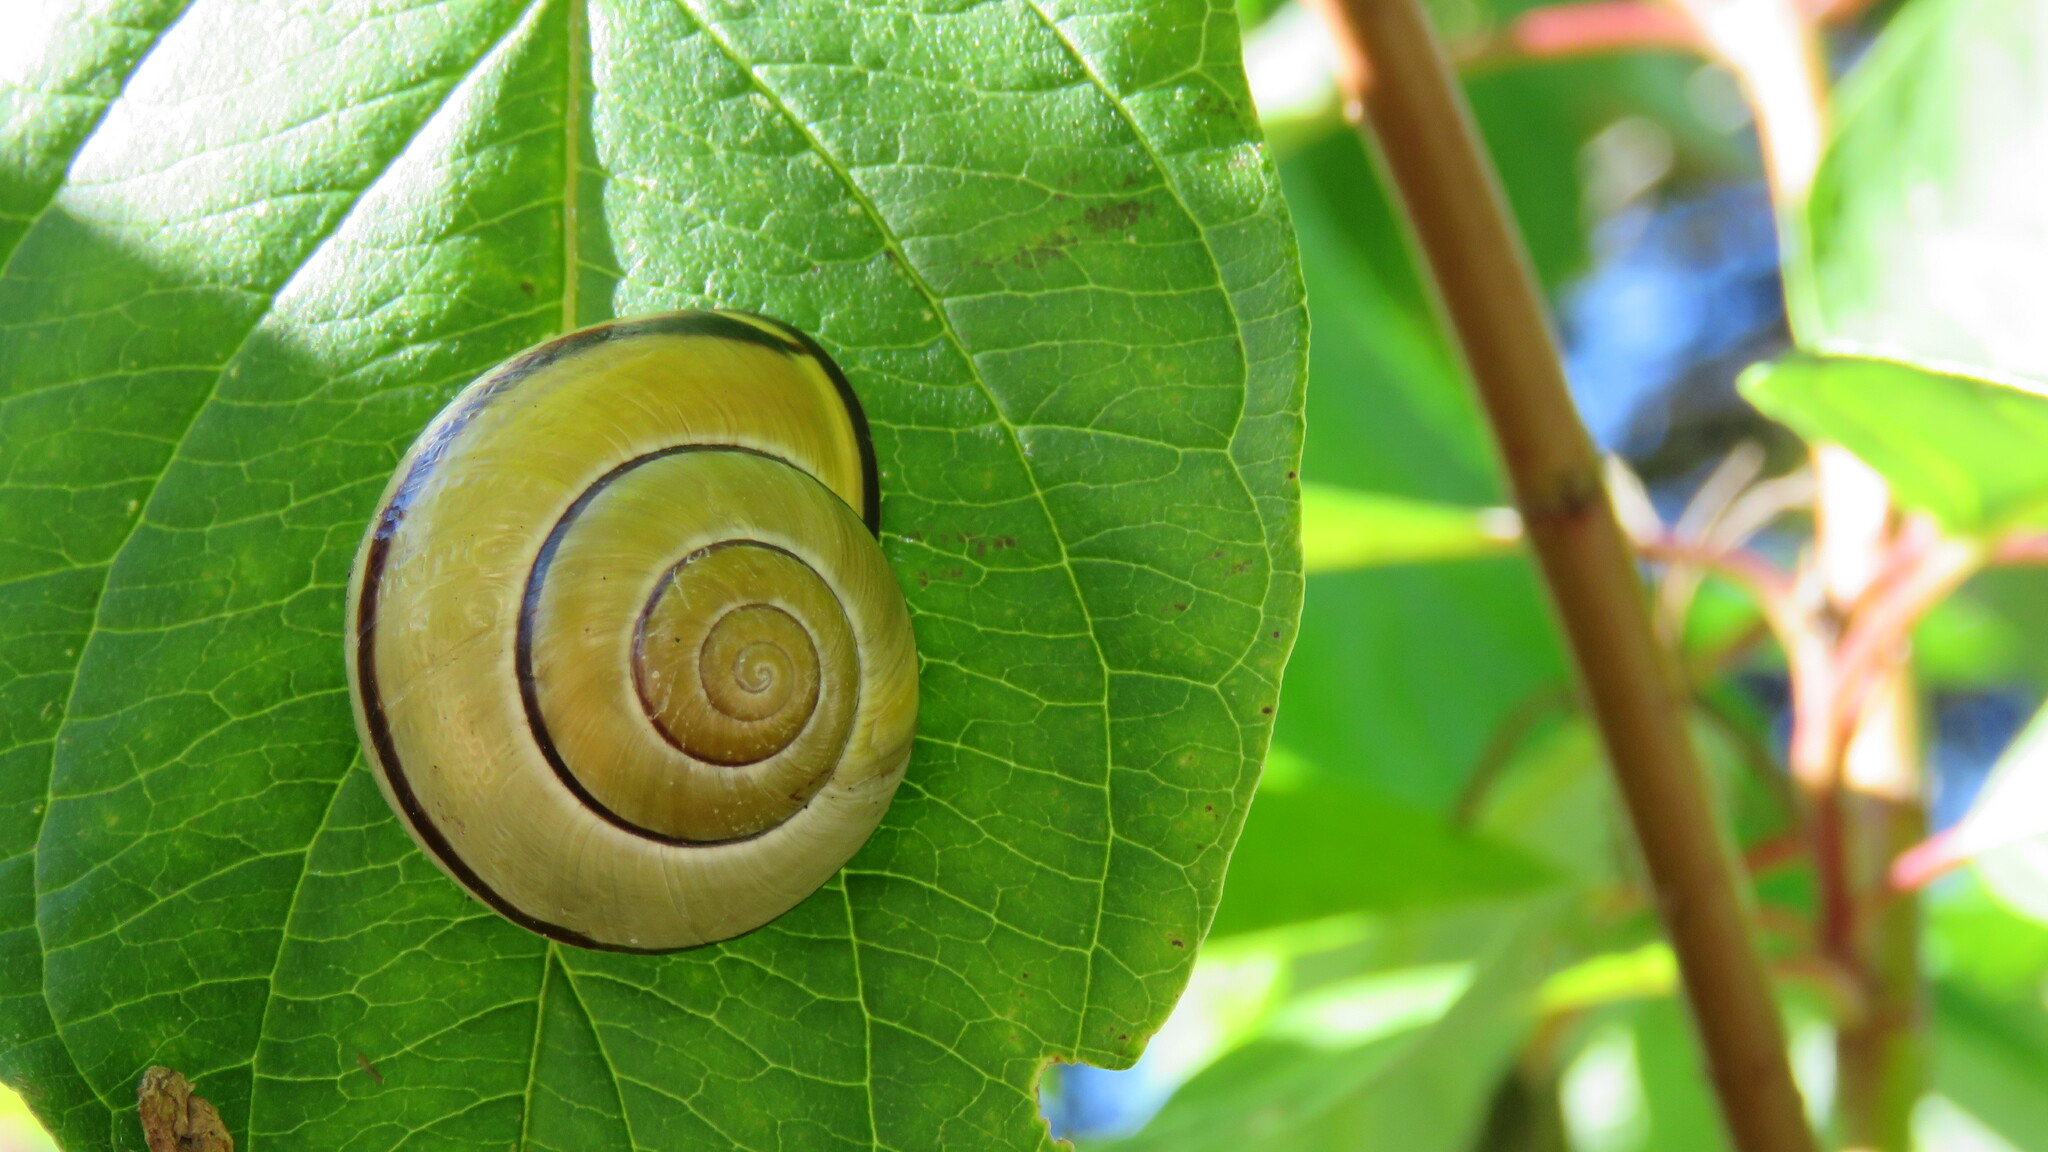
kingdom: Animalia
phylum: Mollusca
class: Gastropoda
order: Stylommatophora
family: Helicidae
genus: Cepaea
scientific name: Cepaea nemoralis
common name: Grovesnail
